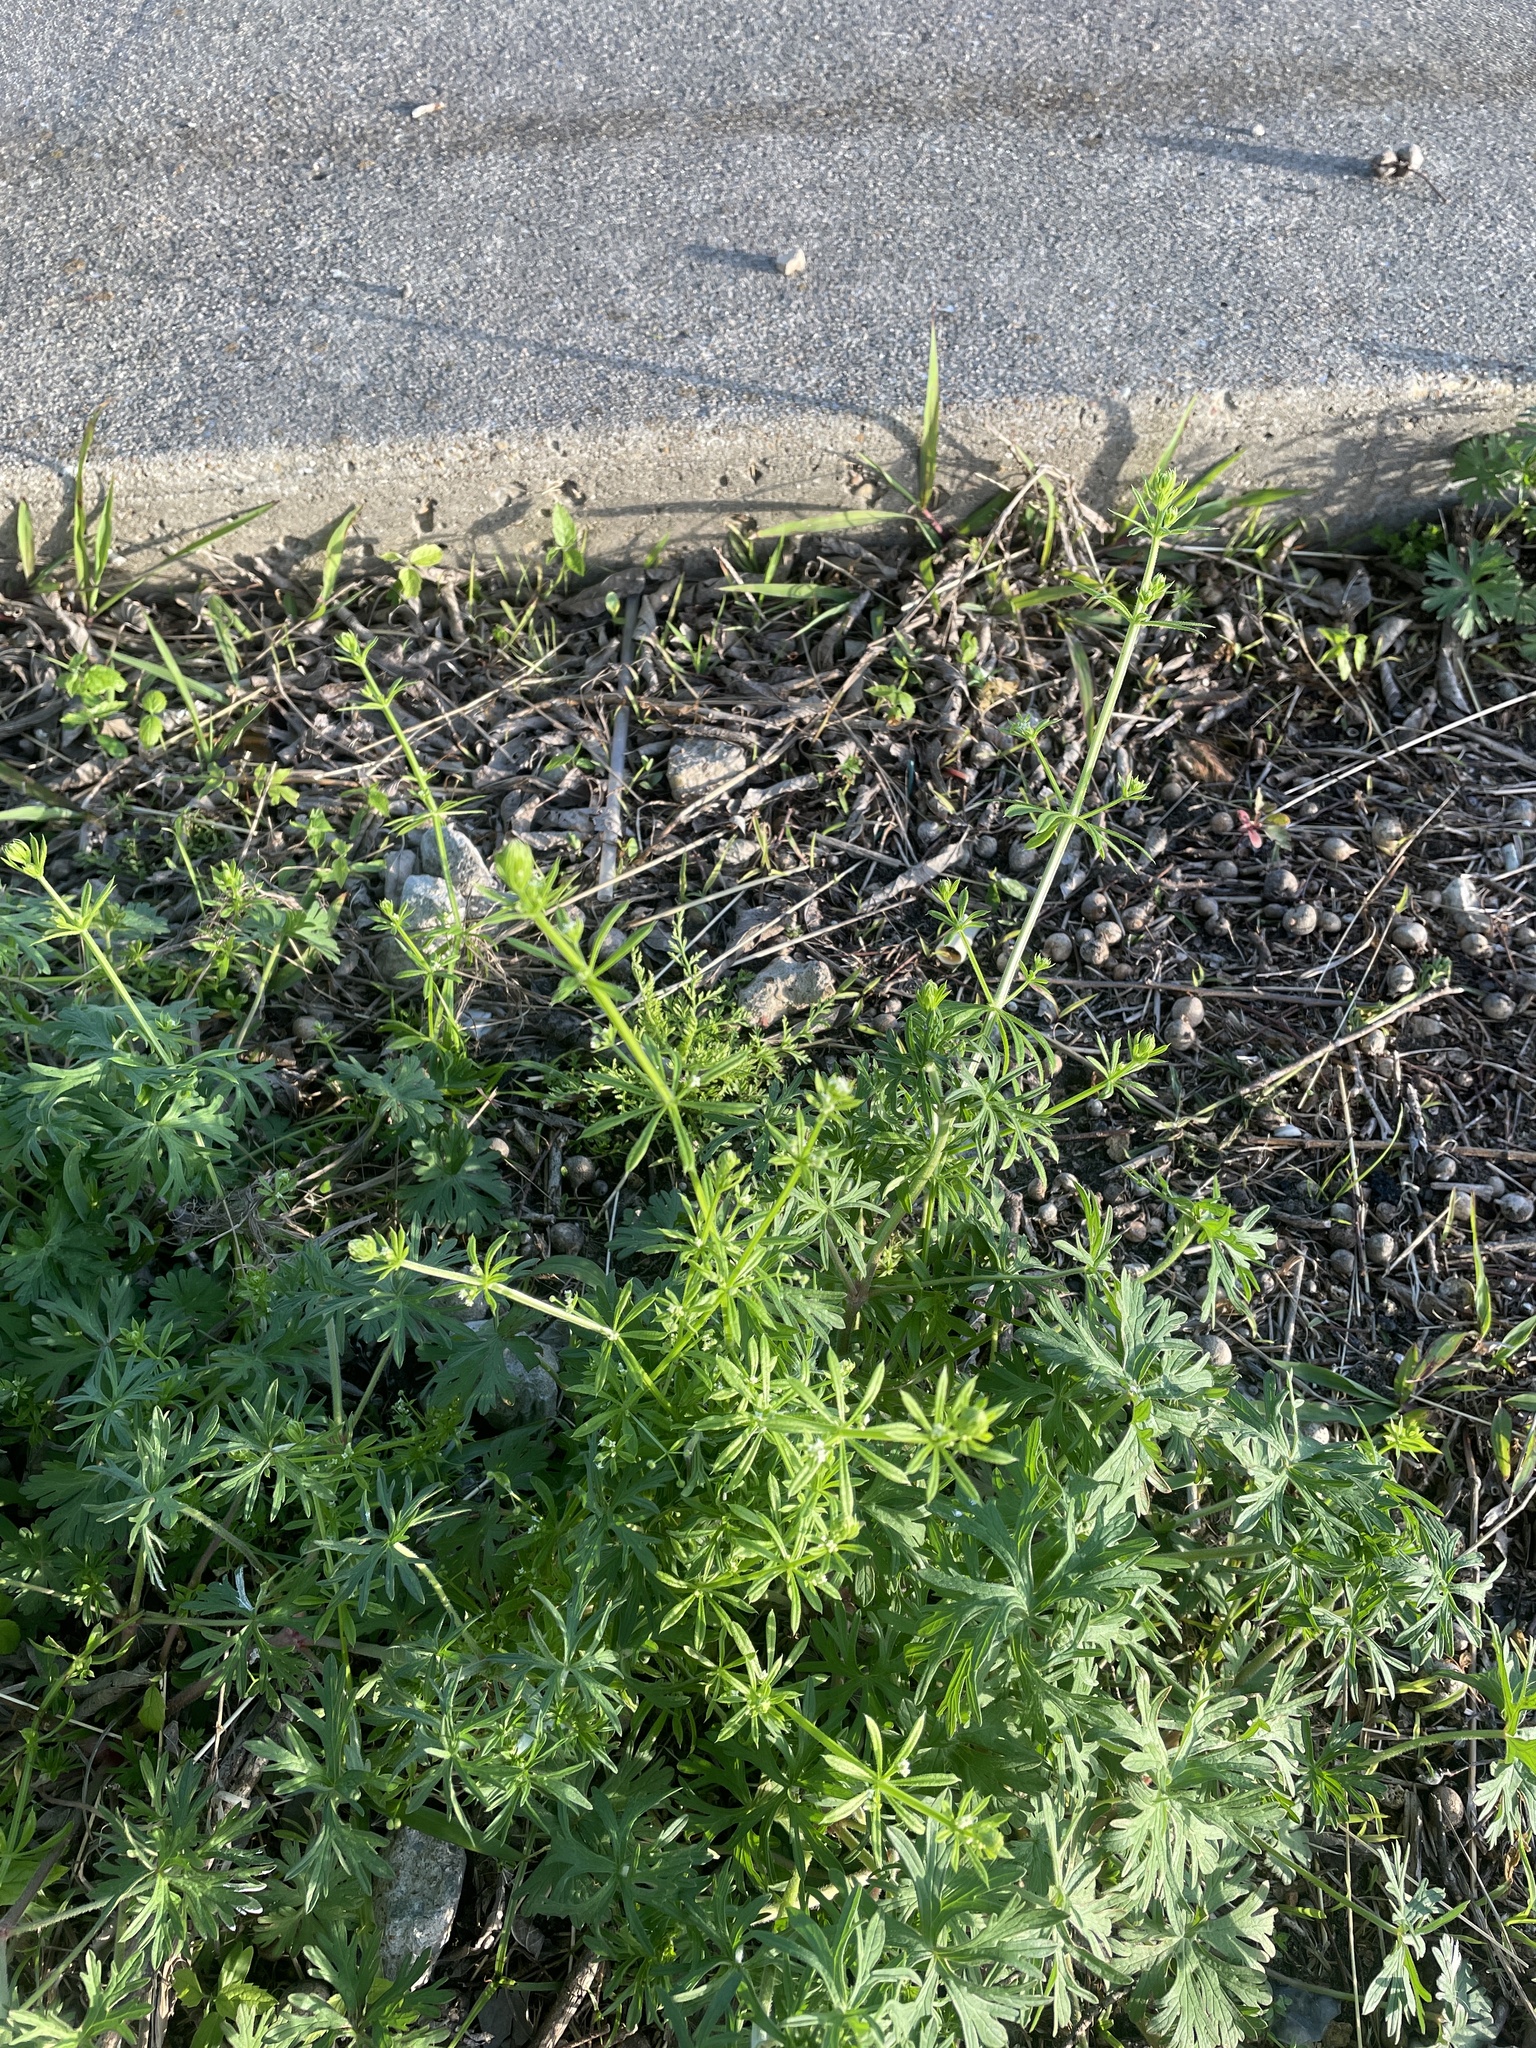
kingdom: Plantae
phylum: Tracheophyta
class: Magnoliopsida
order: Gentianales
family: Rubiaceae
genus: Galium
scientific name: Galium aparine
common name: Cleavers
